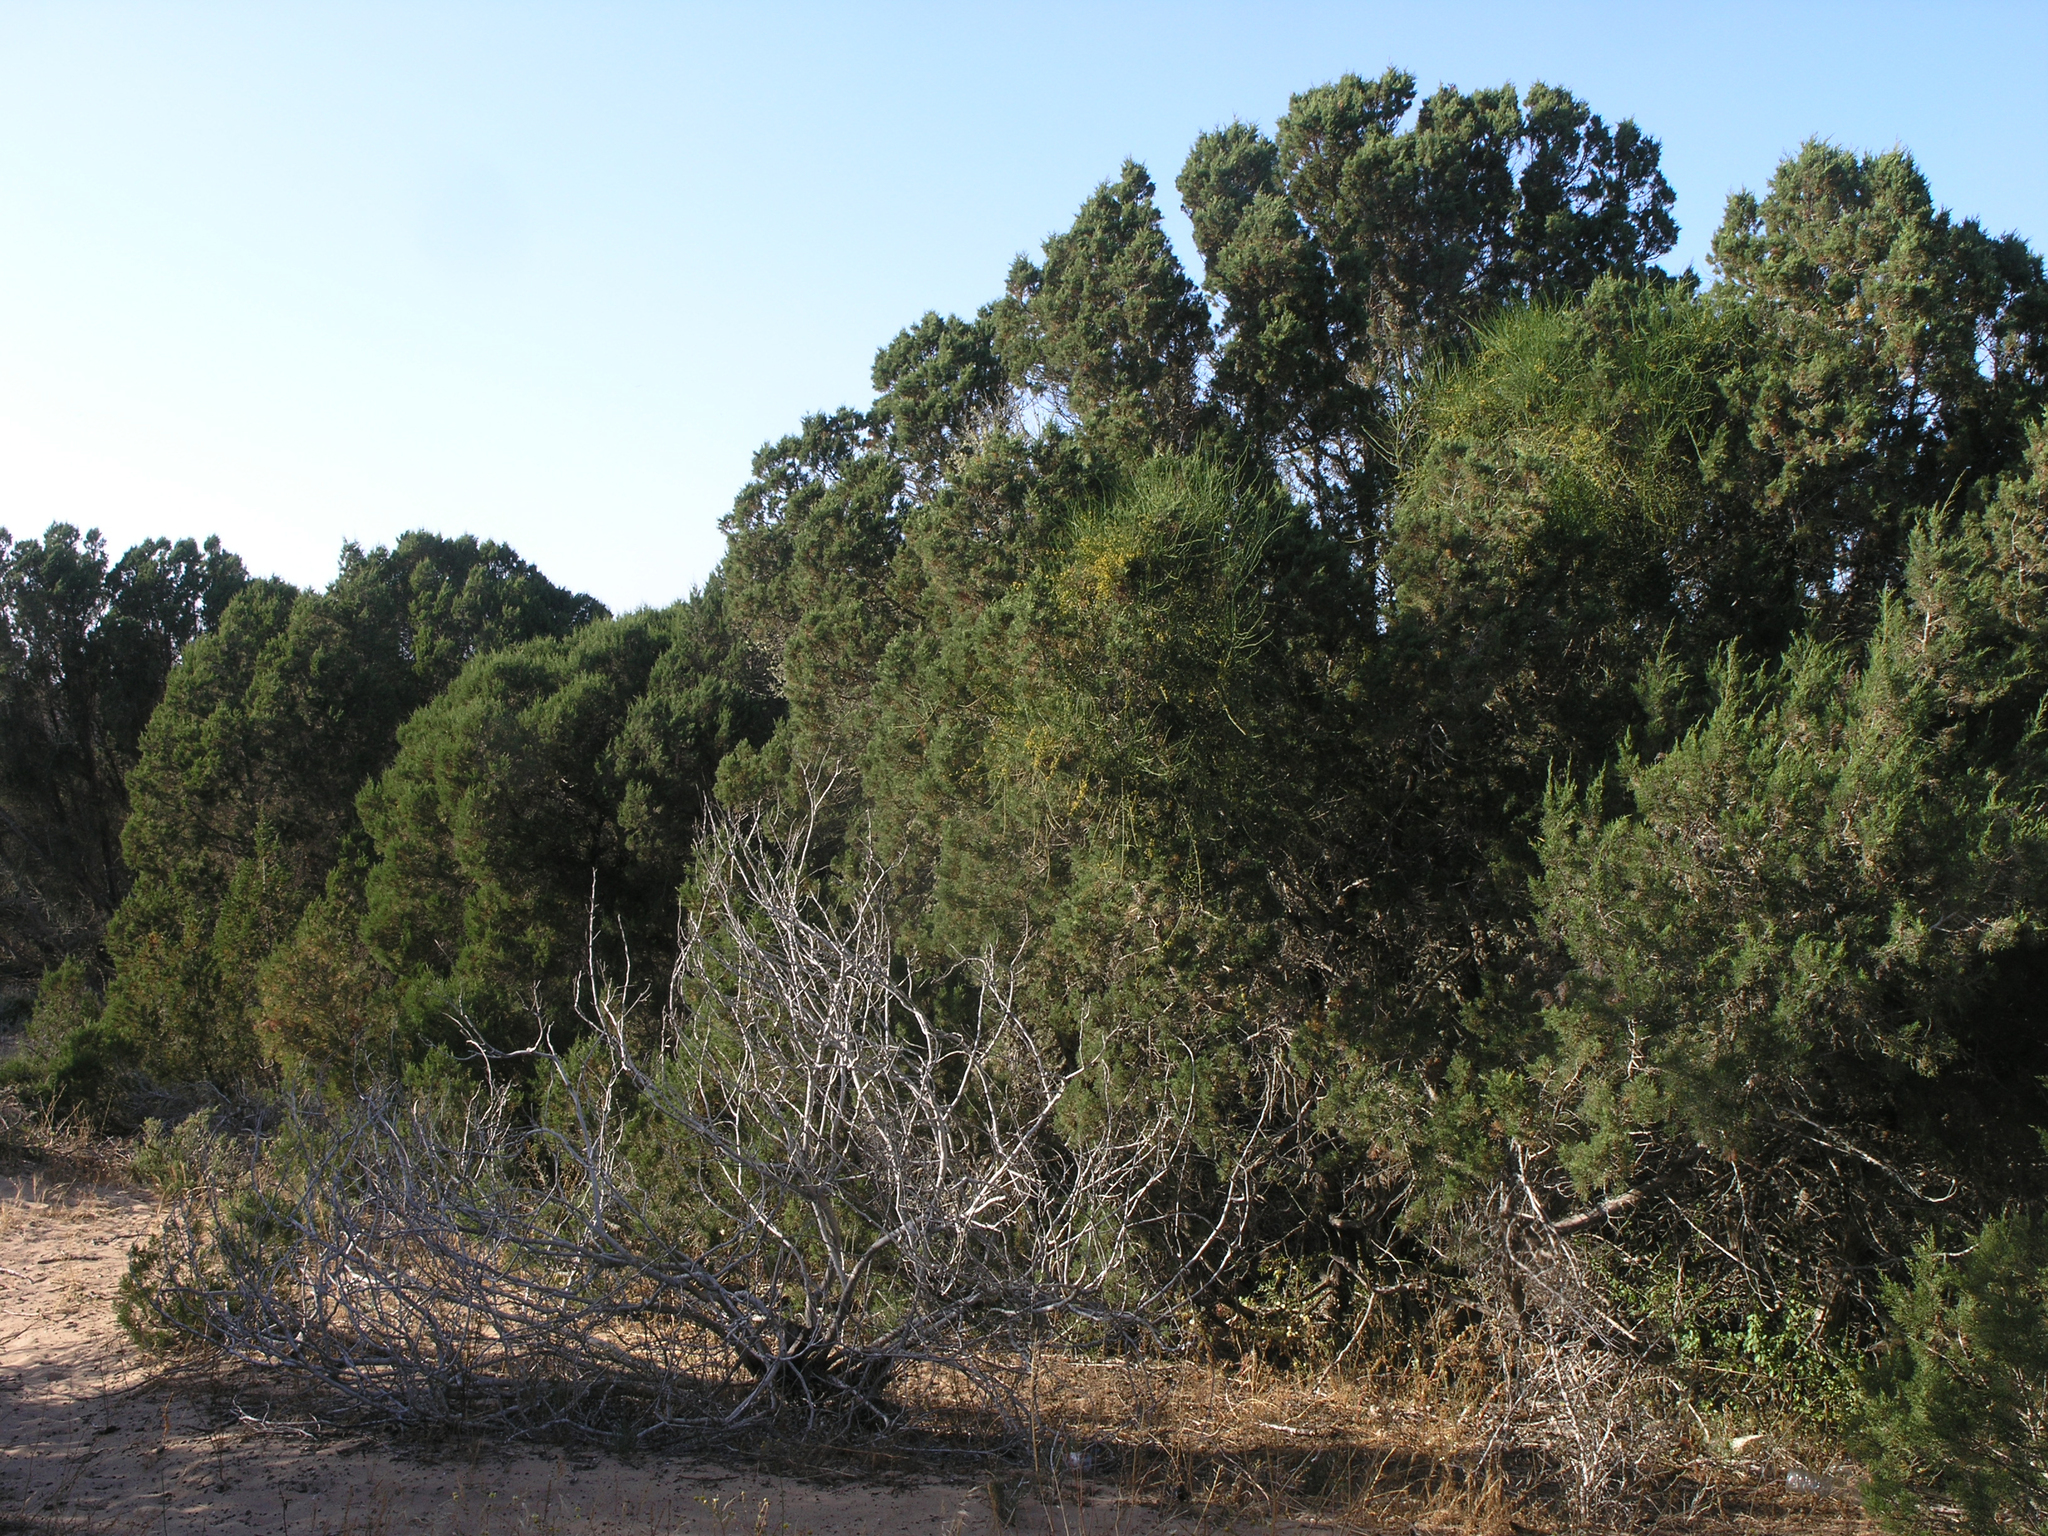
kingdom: Plantae
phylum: Tracheophyta
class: Pinopsida
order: Pinales
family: Cupressaceae
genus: Juniperus
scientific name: Juniperus phoenicea
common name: Phoenician juniper
